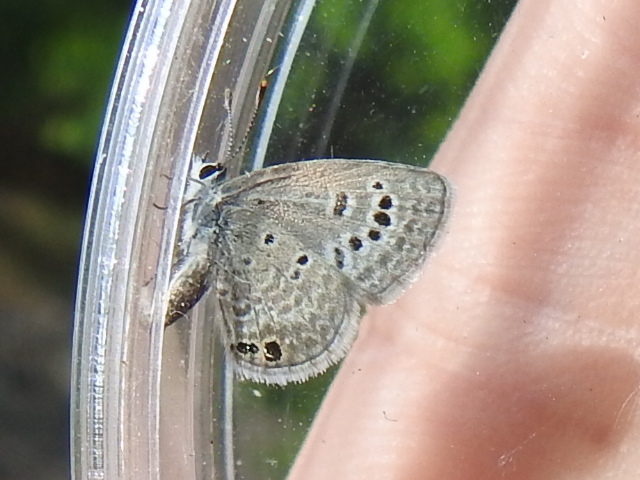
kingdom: Animalia
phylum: Arthropoda
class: Insecta
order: Lepidoptera
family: Lycaenidae
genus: Echinargus
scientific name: Echinargus isola
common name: Reakirt's blue
